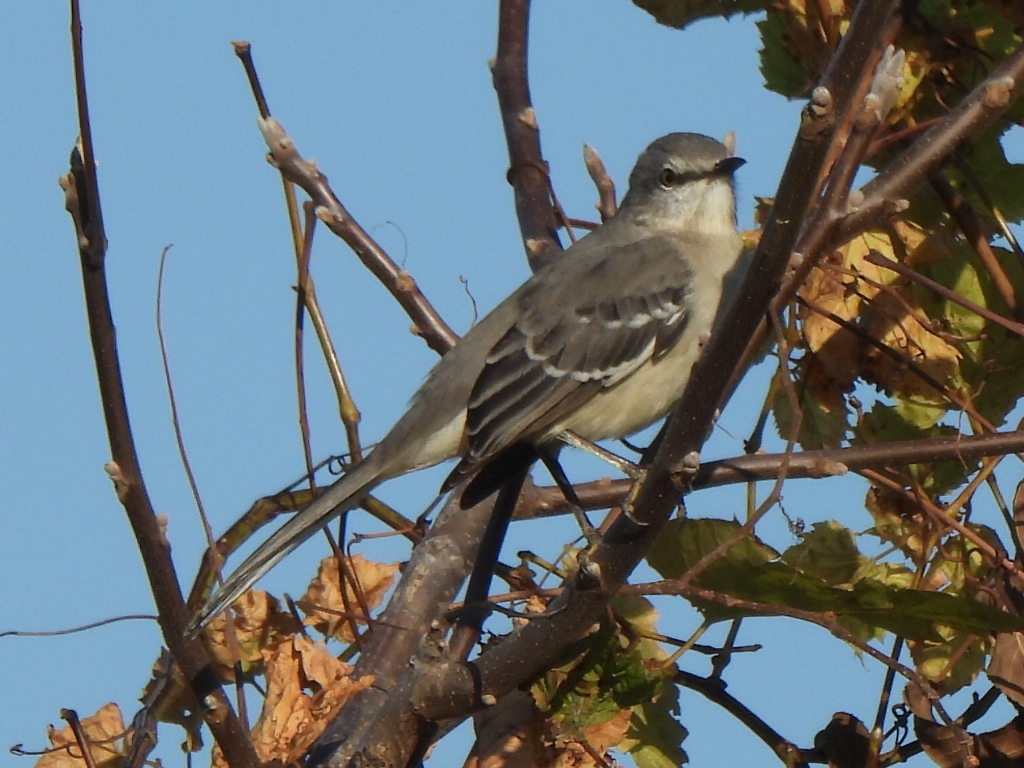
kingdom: Animalia
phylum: Chordata
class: Aves
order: Passeriformes
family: Mimidae
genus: Mimus
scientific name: Mimus polyglottos
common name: Northern mockingbird
